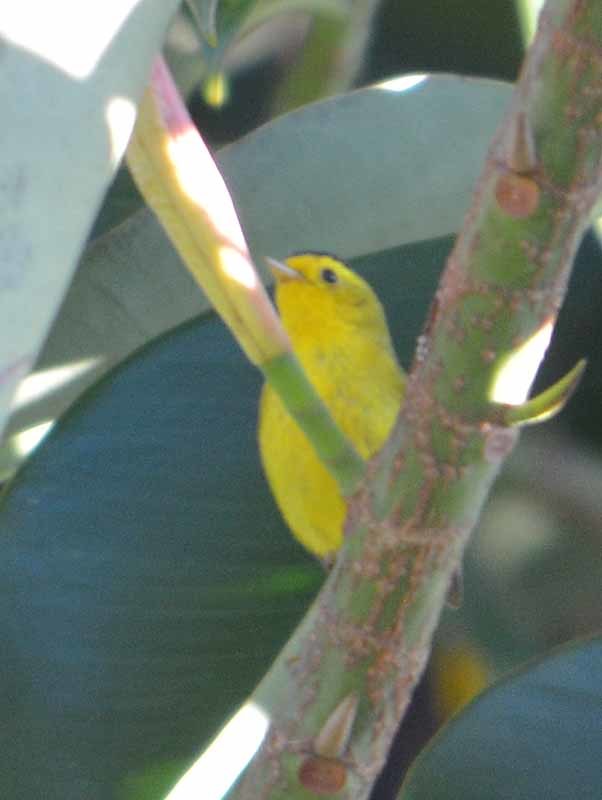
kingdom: Animalia
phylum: Chordata
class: Aves
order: Passeriformes
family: Parulidae
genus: Cardellina
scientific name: Cardellina pusilla
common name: Wilson's warbler
